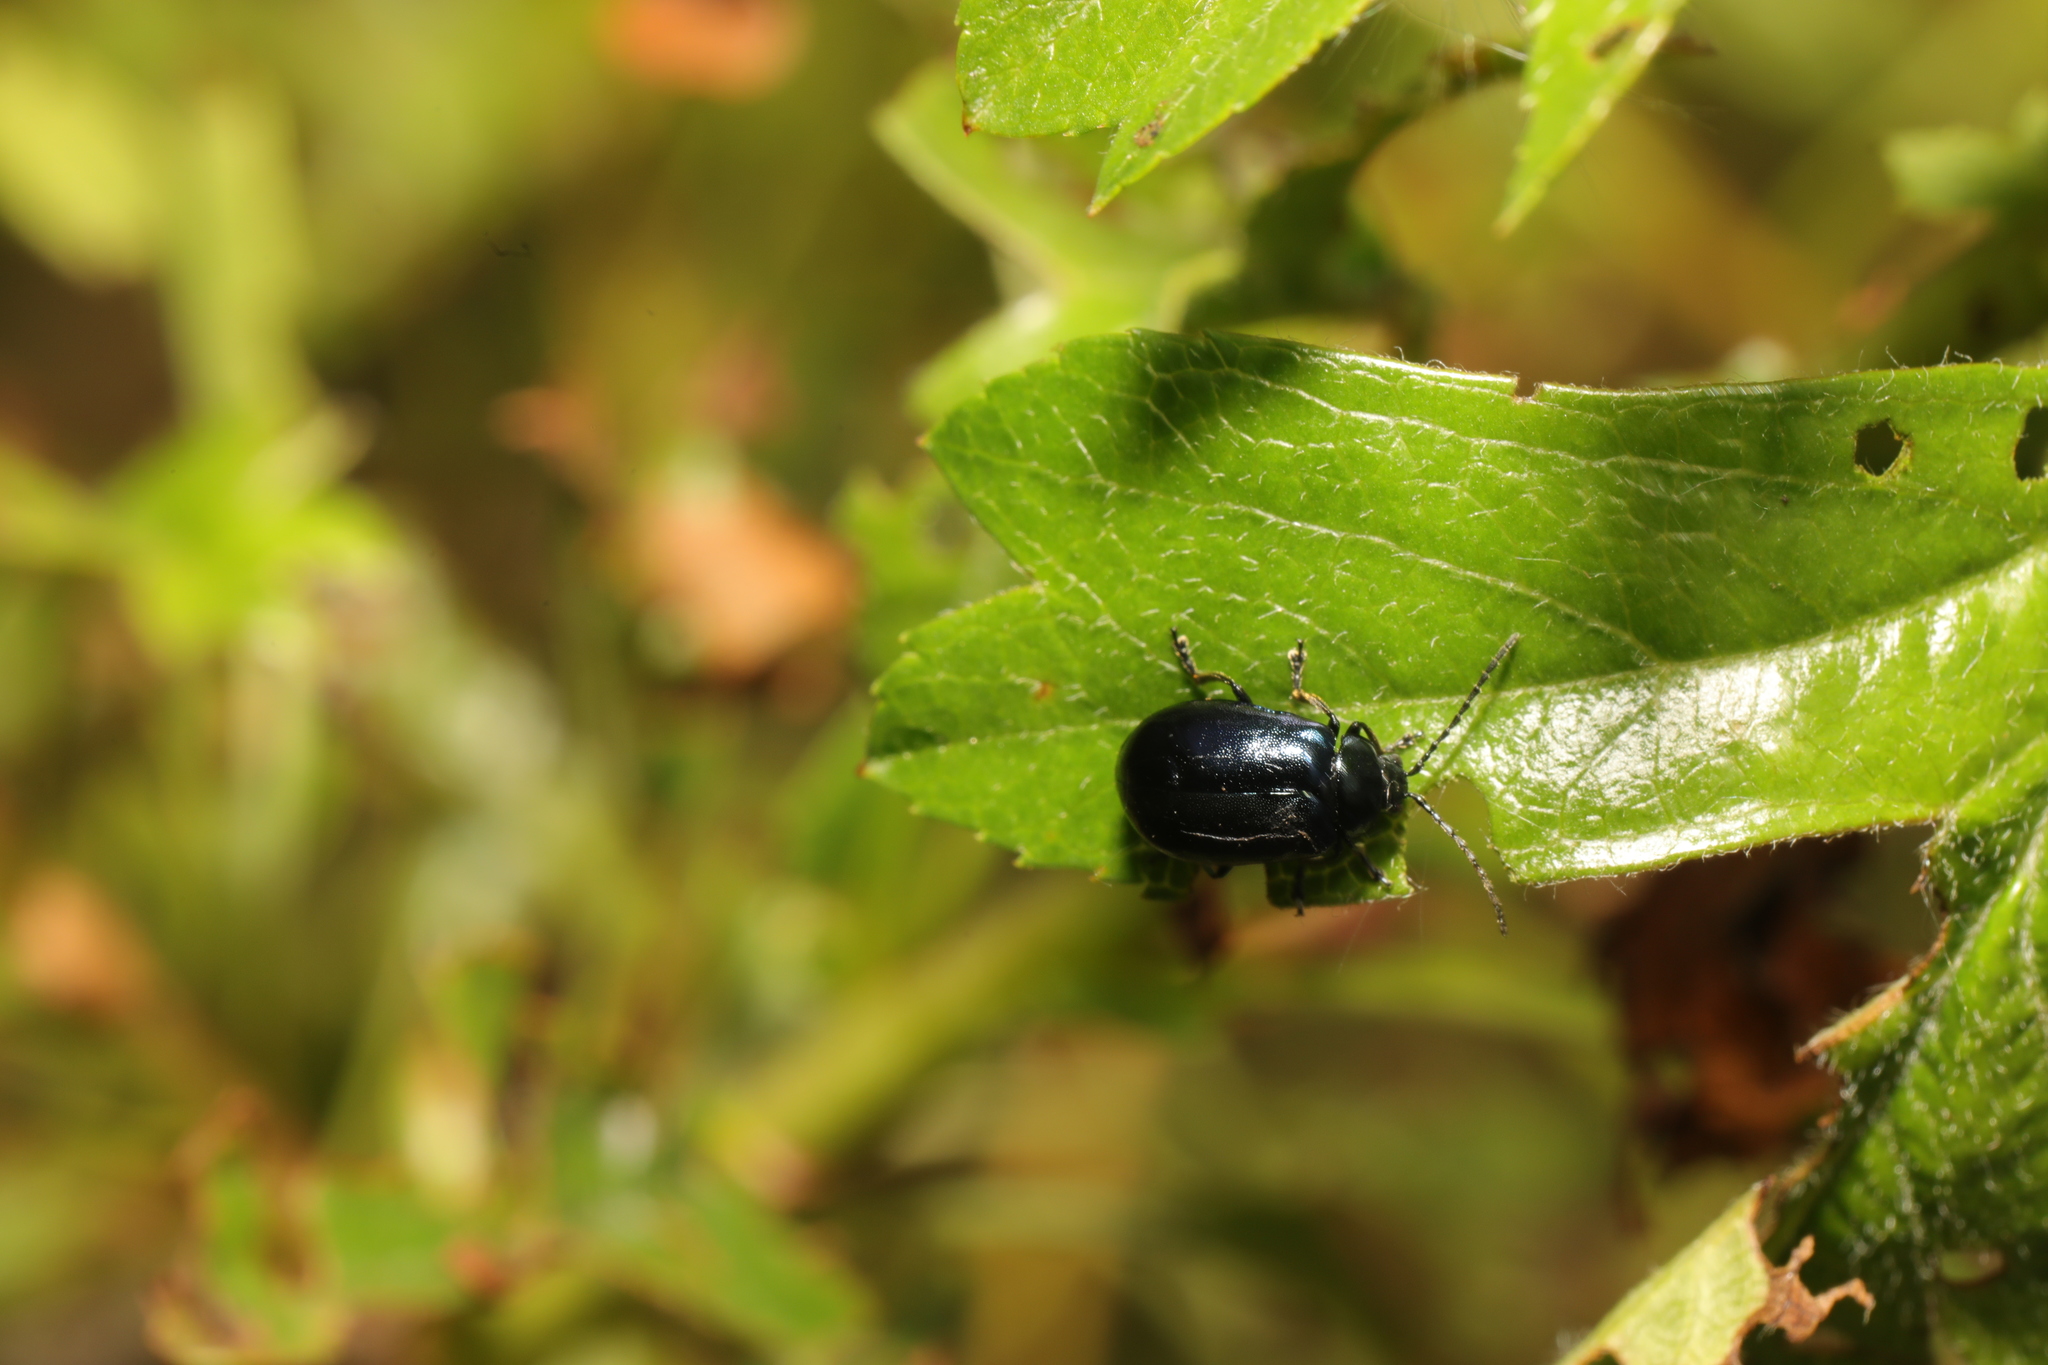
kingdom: Animalia
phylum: Arthropoda
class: Insecta
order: Coleoptera
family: Chrysomelidae
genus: Agelastica
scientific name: Agelastica alni
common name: Alder leaf beetle
